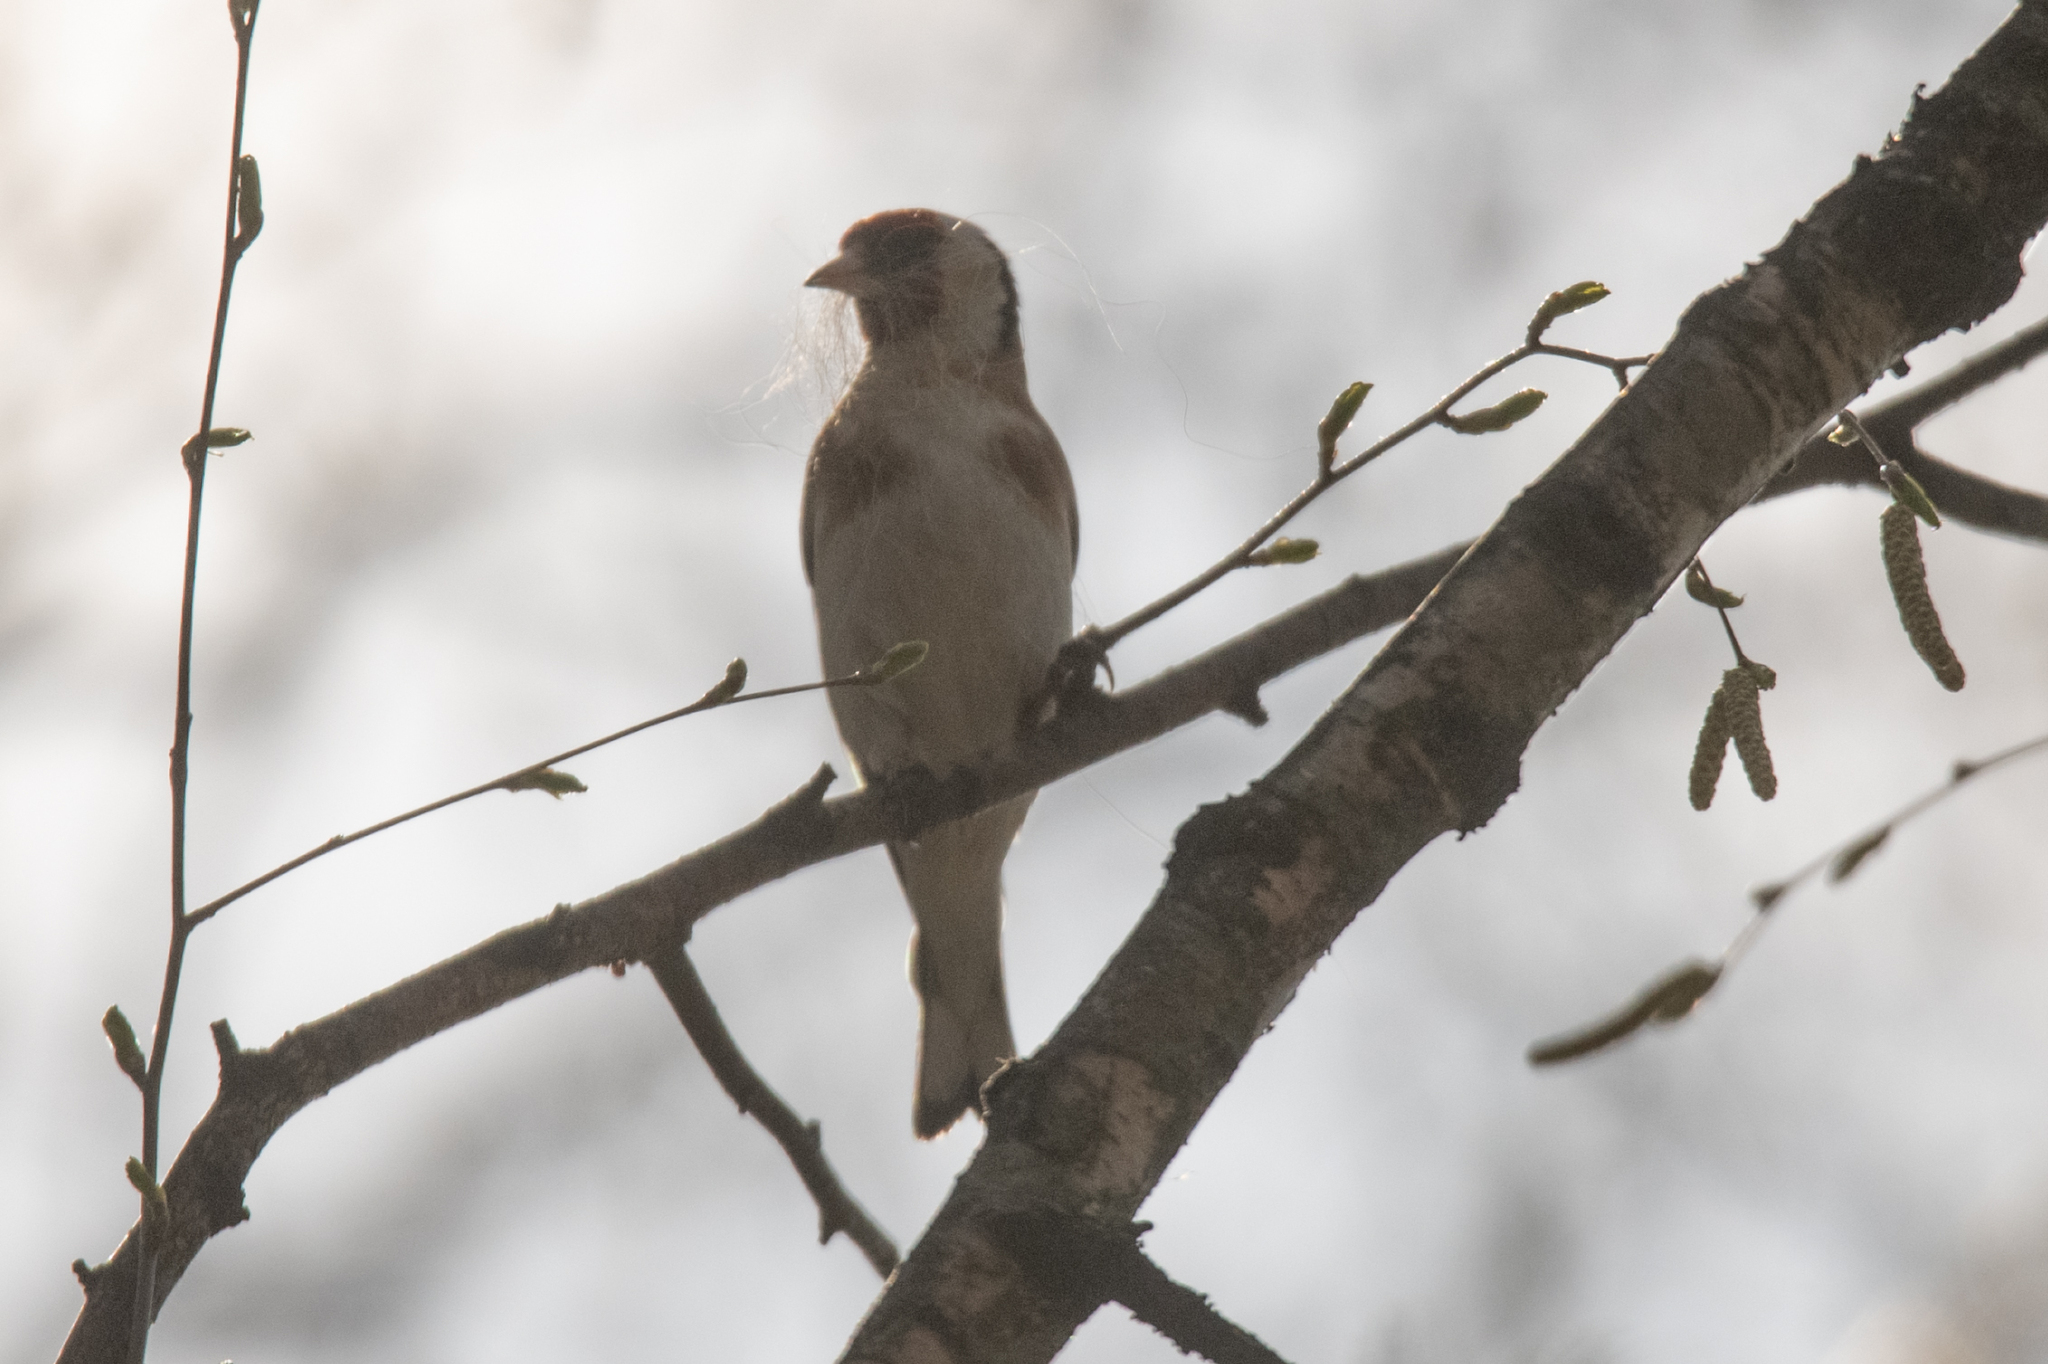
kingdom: Animalia
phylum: Chordata
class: Aves
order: Passeriformes
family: Fringillidae
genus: Carduelis
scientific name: Carduelis carduelis
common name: European goldfinch
